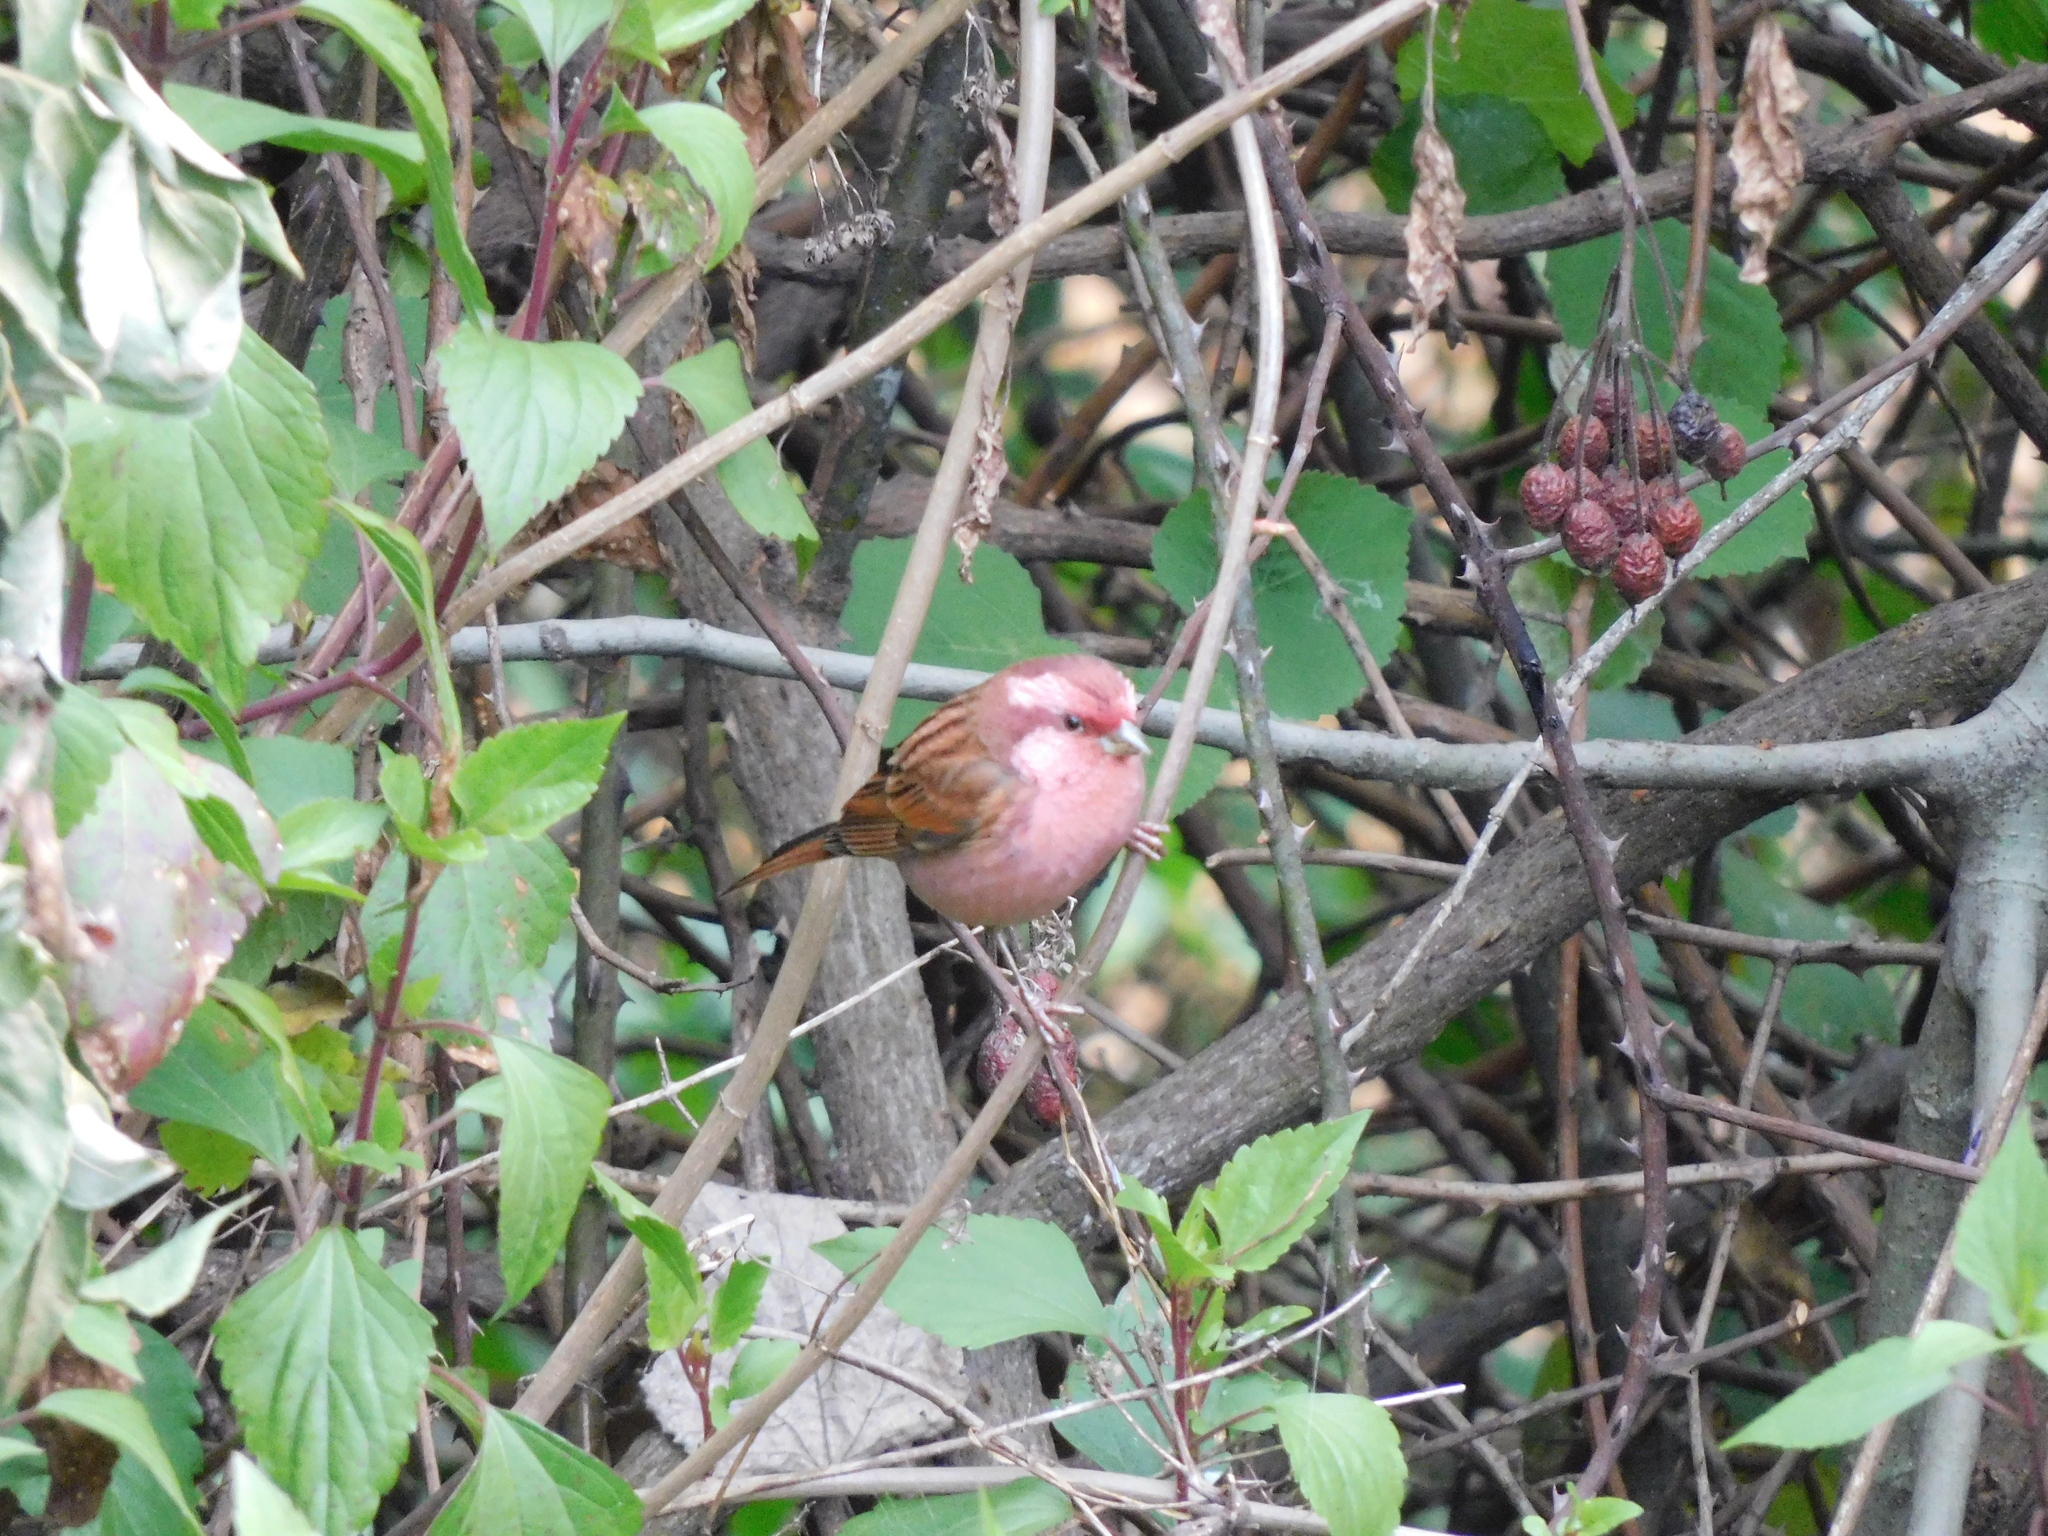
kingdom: Animalia
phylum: Chordata
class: Aves
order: Passeriformes
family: Fringillidae
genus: Carpodacus
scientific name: Carpodacus rodochroa
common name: Pink-browed rosefinch
